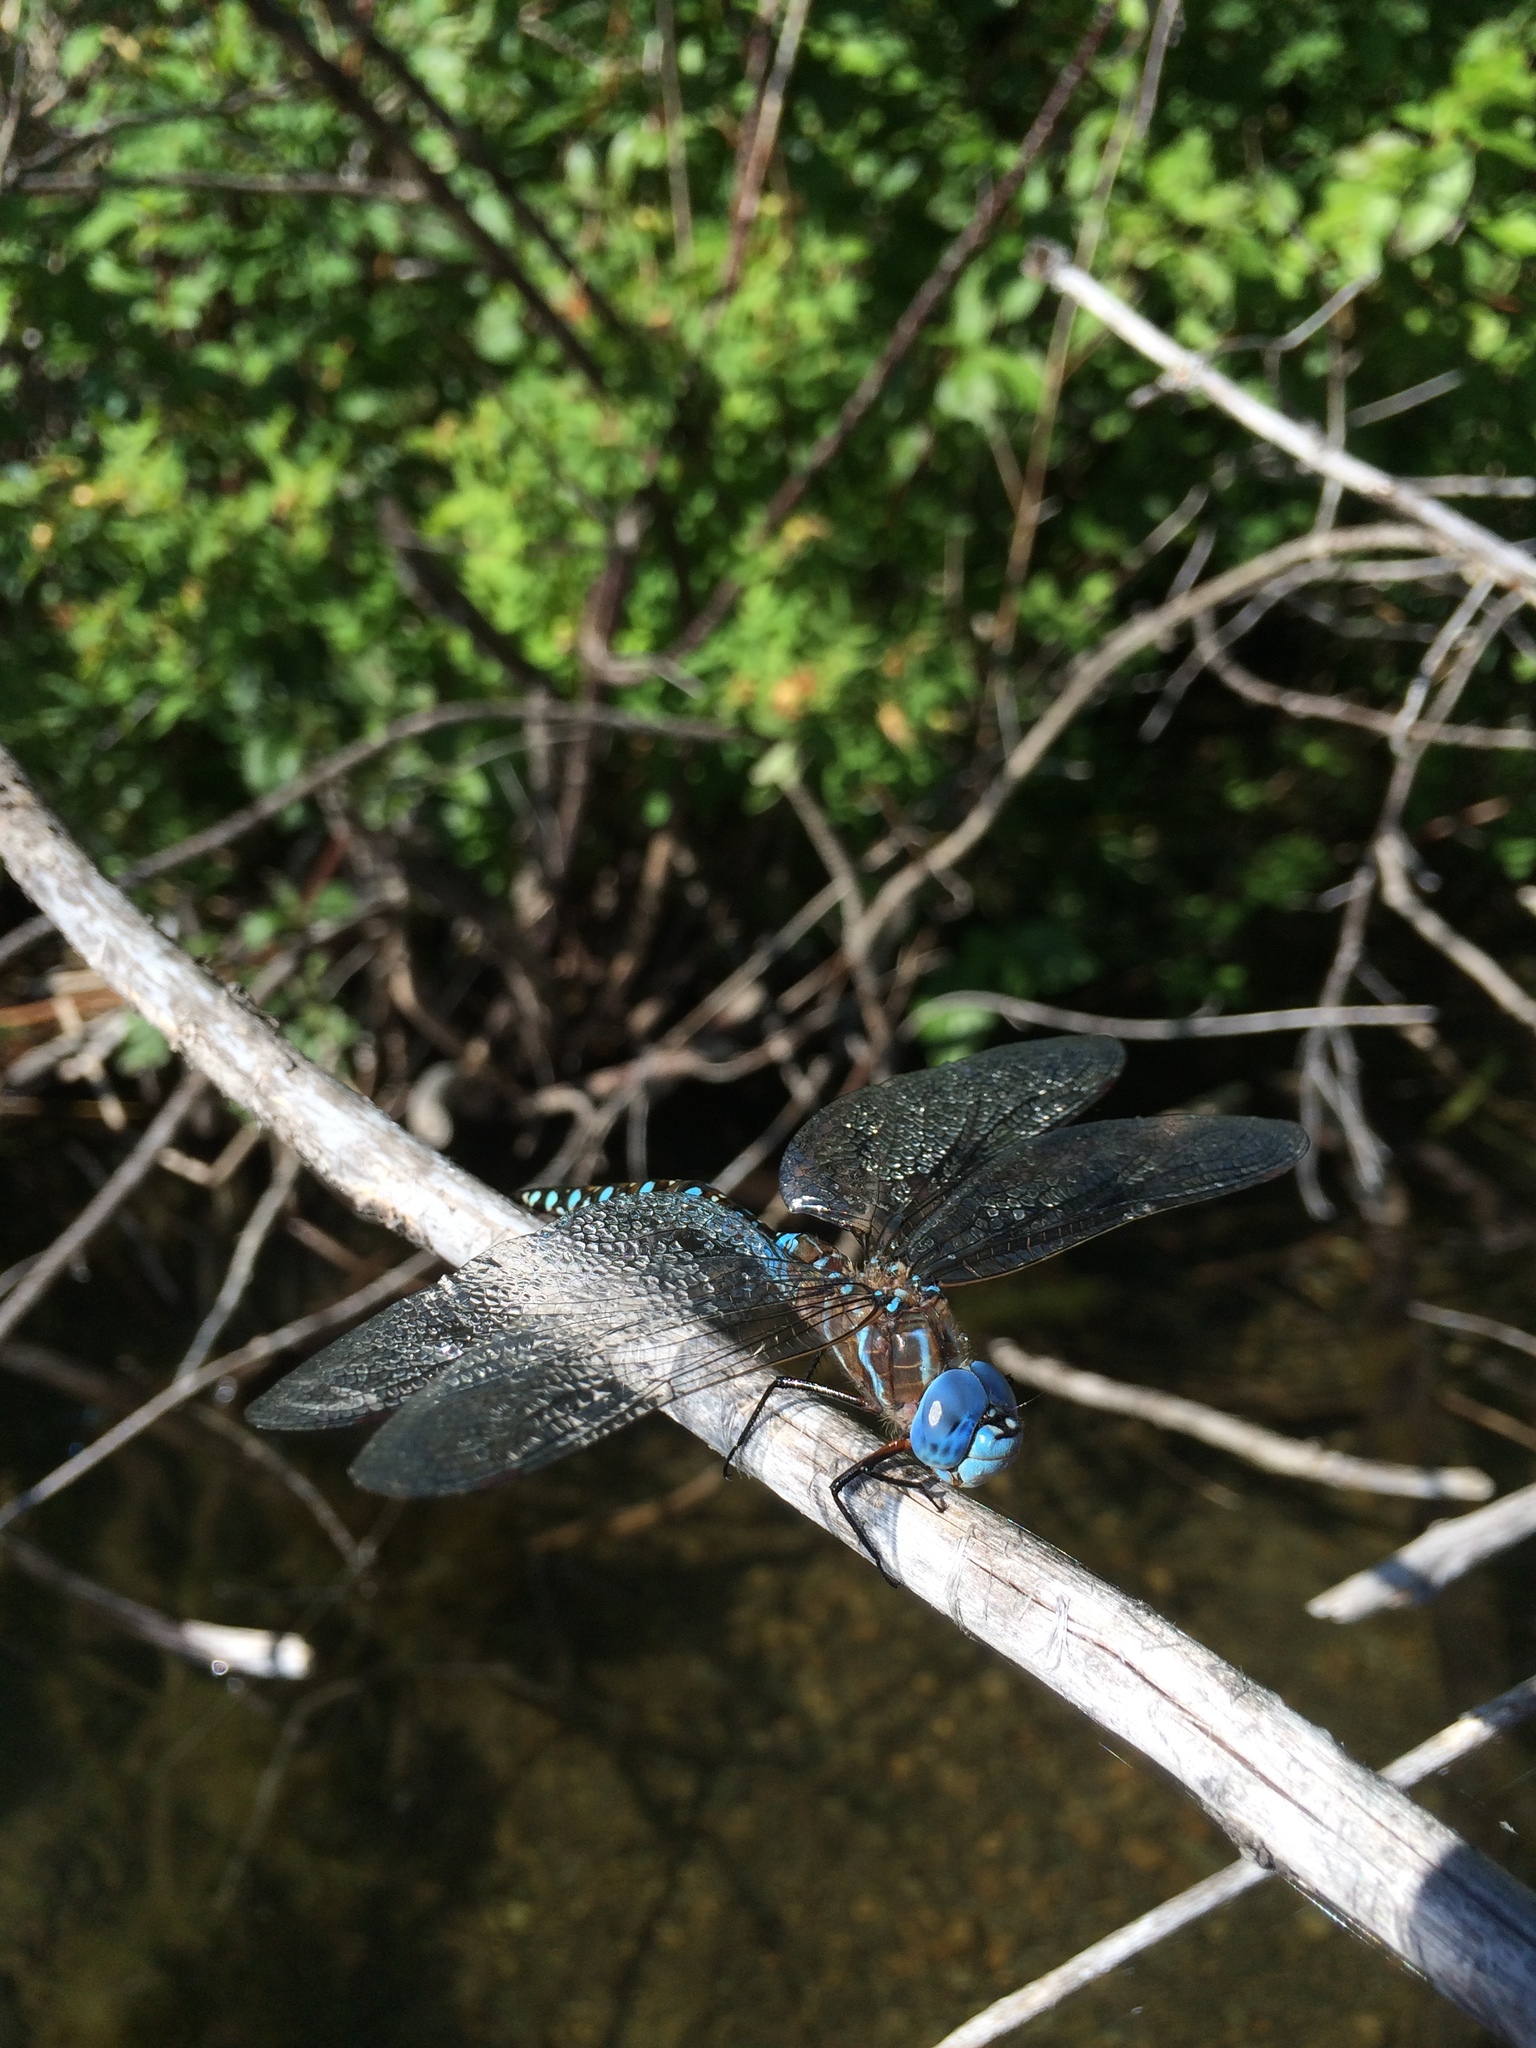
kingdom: Animalia
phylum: Arthropoda
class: Insecta
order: Odonata
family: Aeshnidae
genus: Rhionaeschna
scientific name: Rhionaeschna multicolor
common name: Blue-eyed darner
